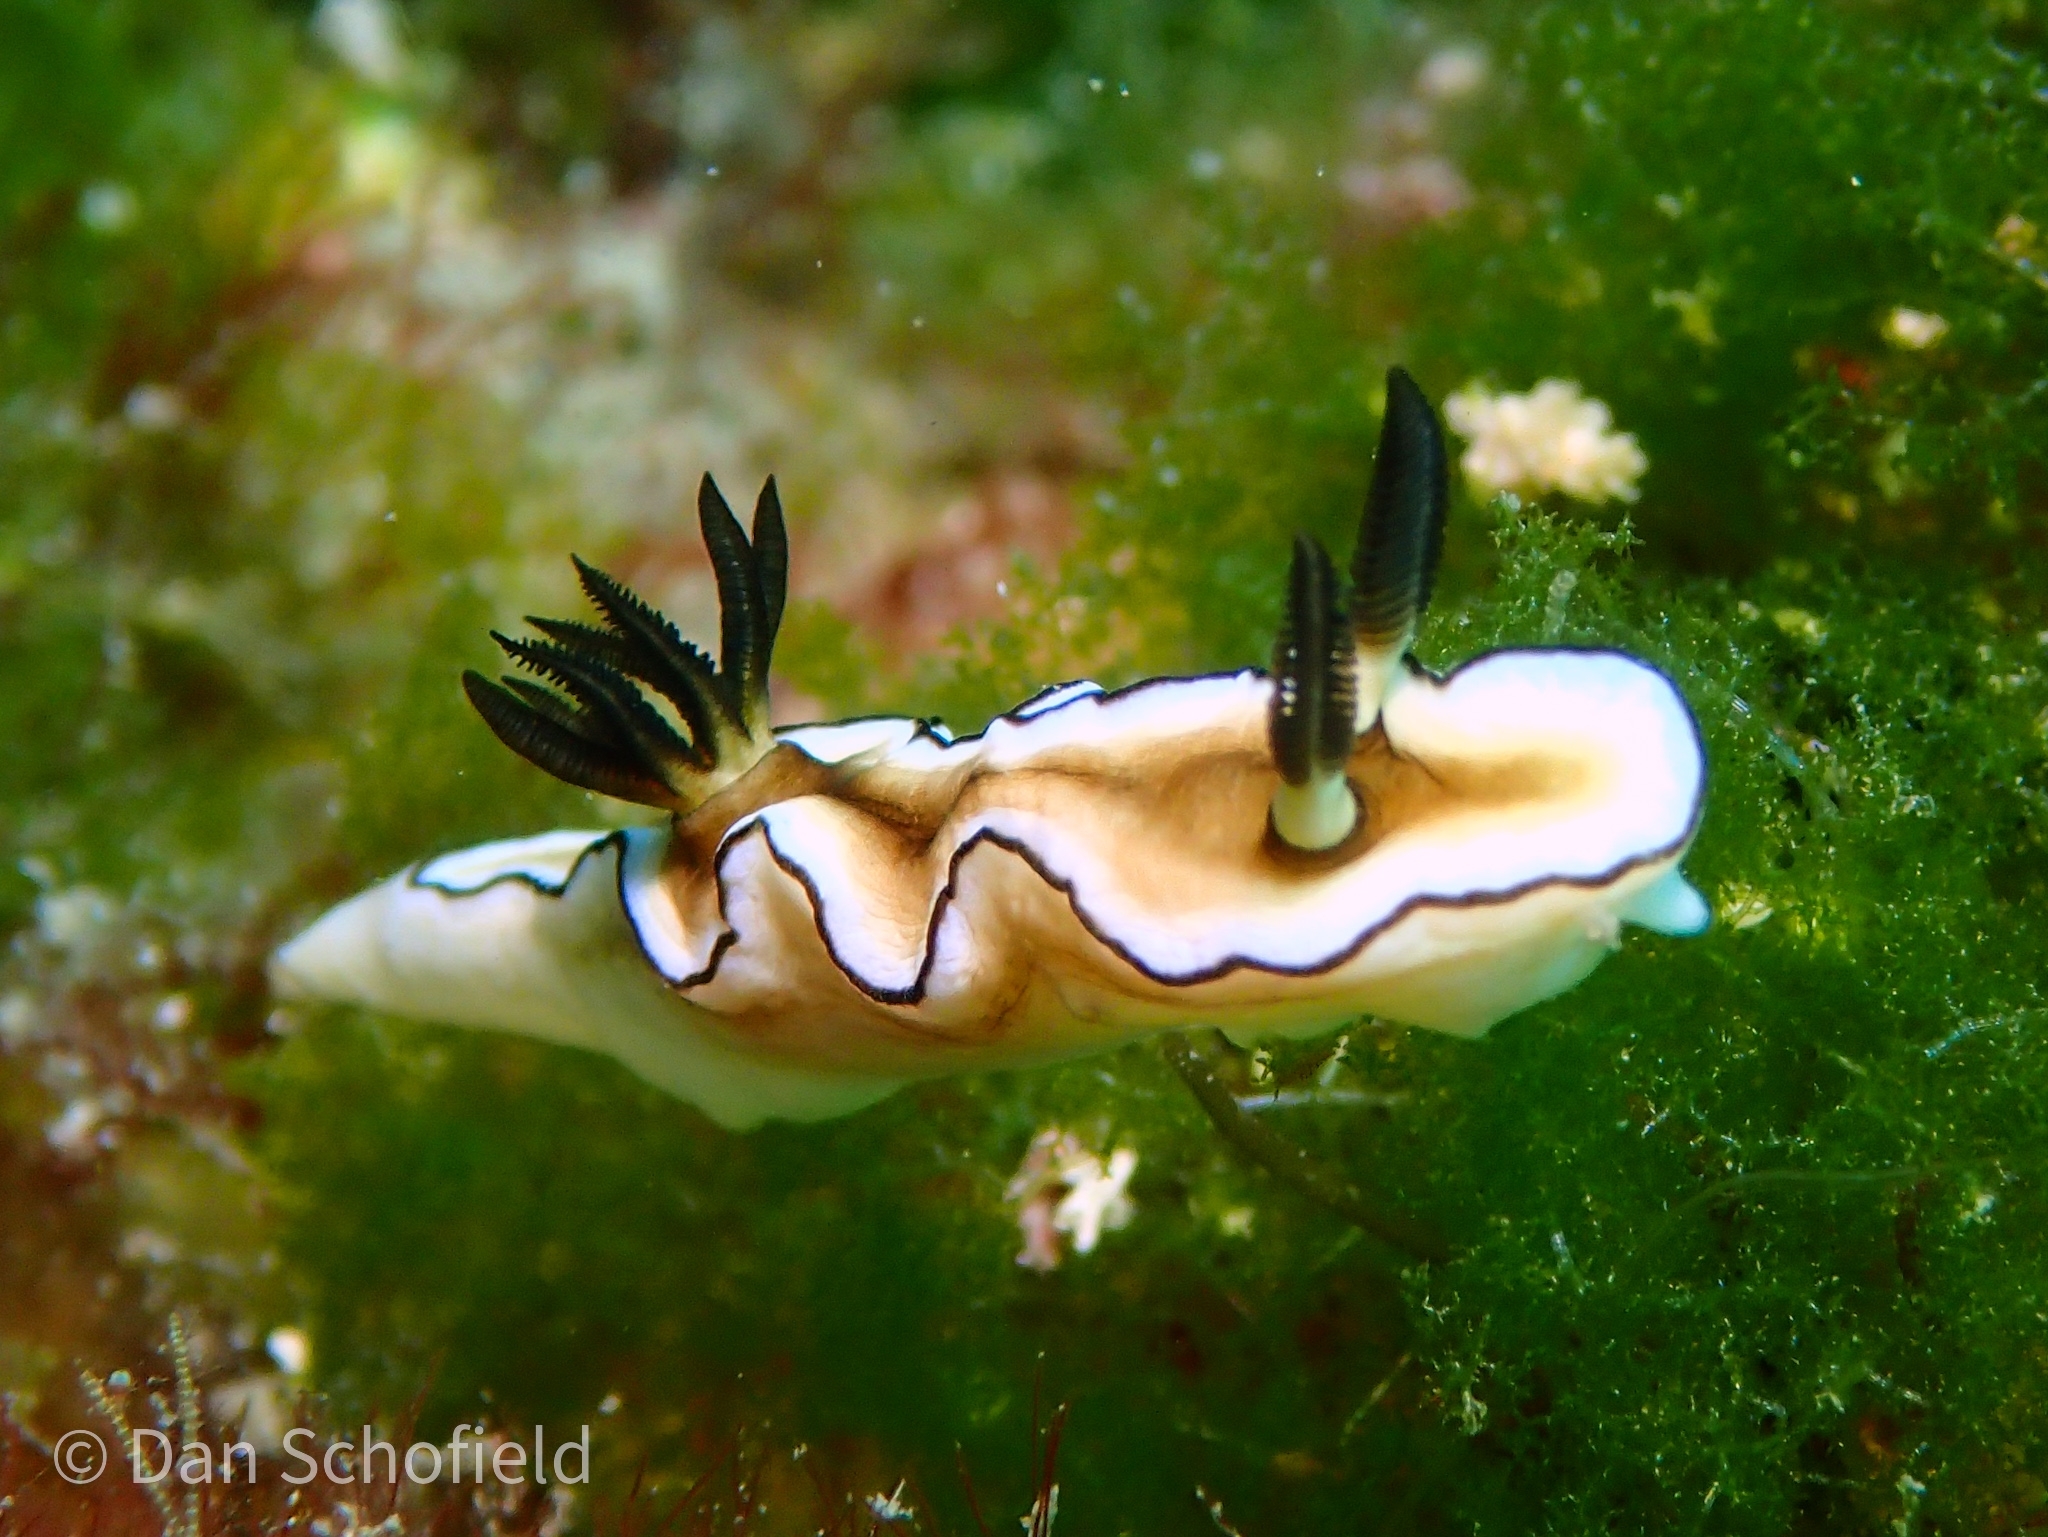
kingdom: Animalia
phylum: Mollusca
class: Gastropoda
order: Nudibranchia
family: Chromodorididae
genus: Doriprismatica
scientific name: Doriprismatica atromarginata
